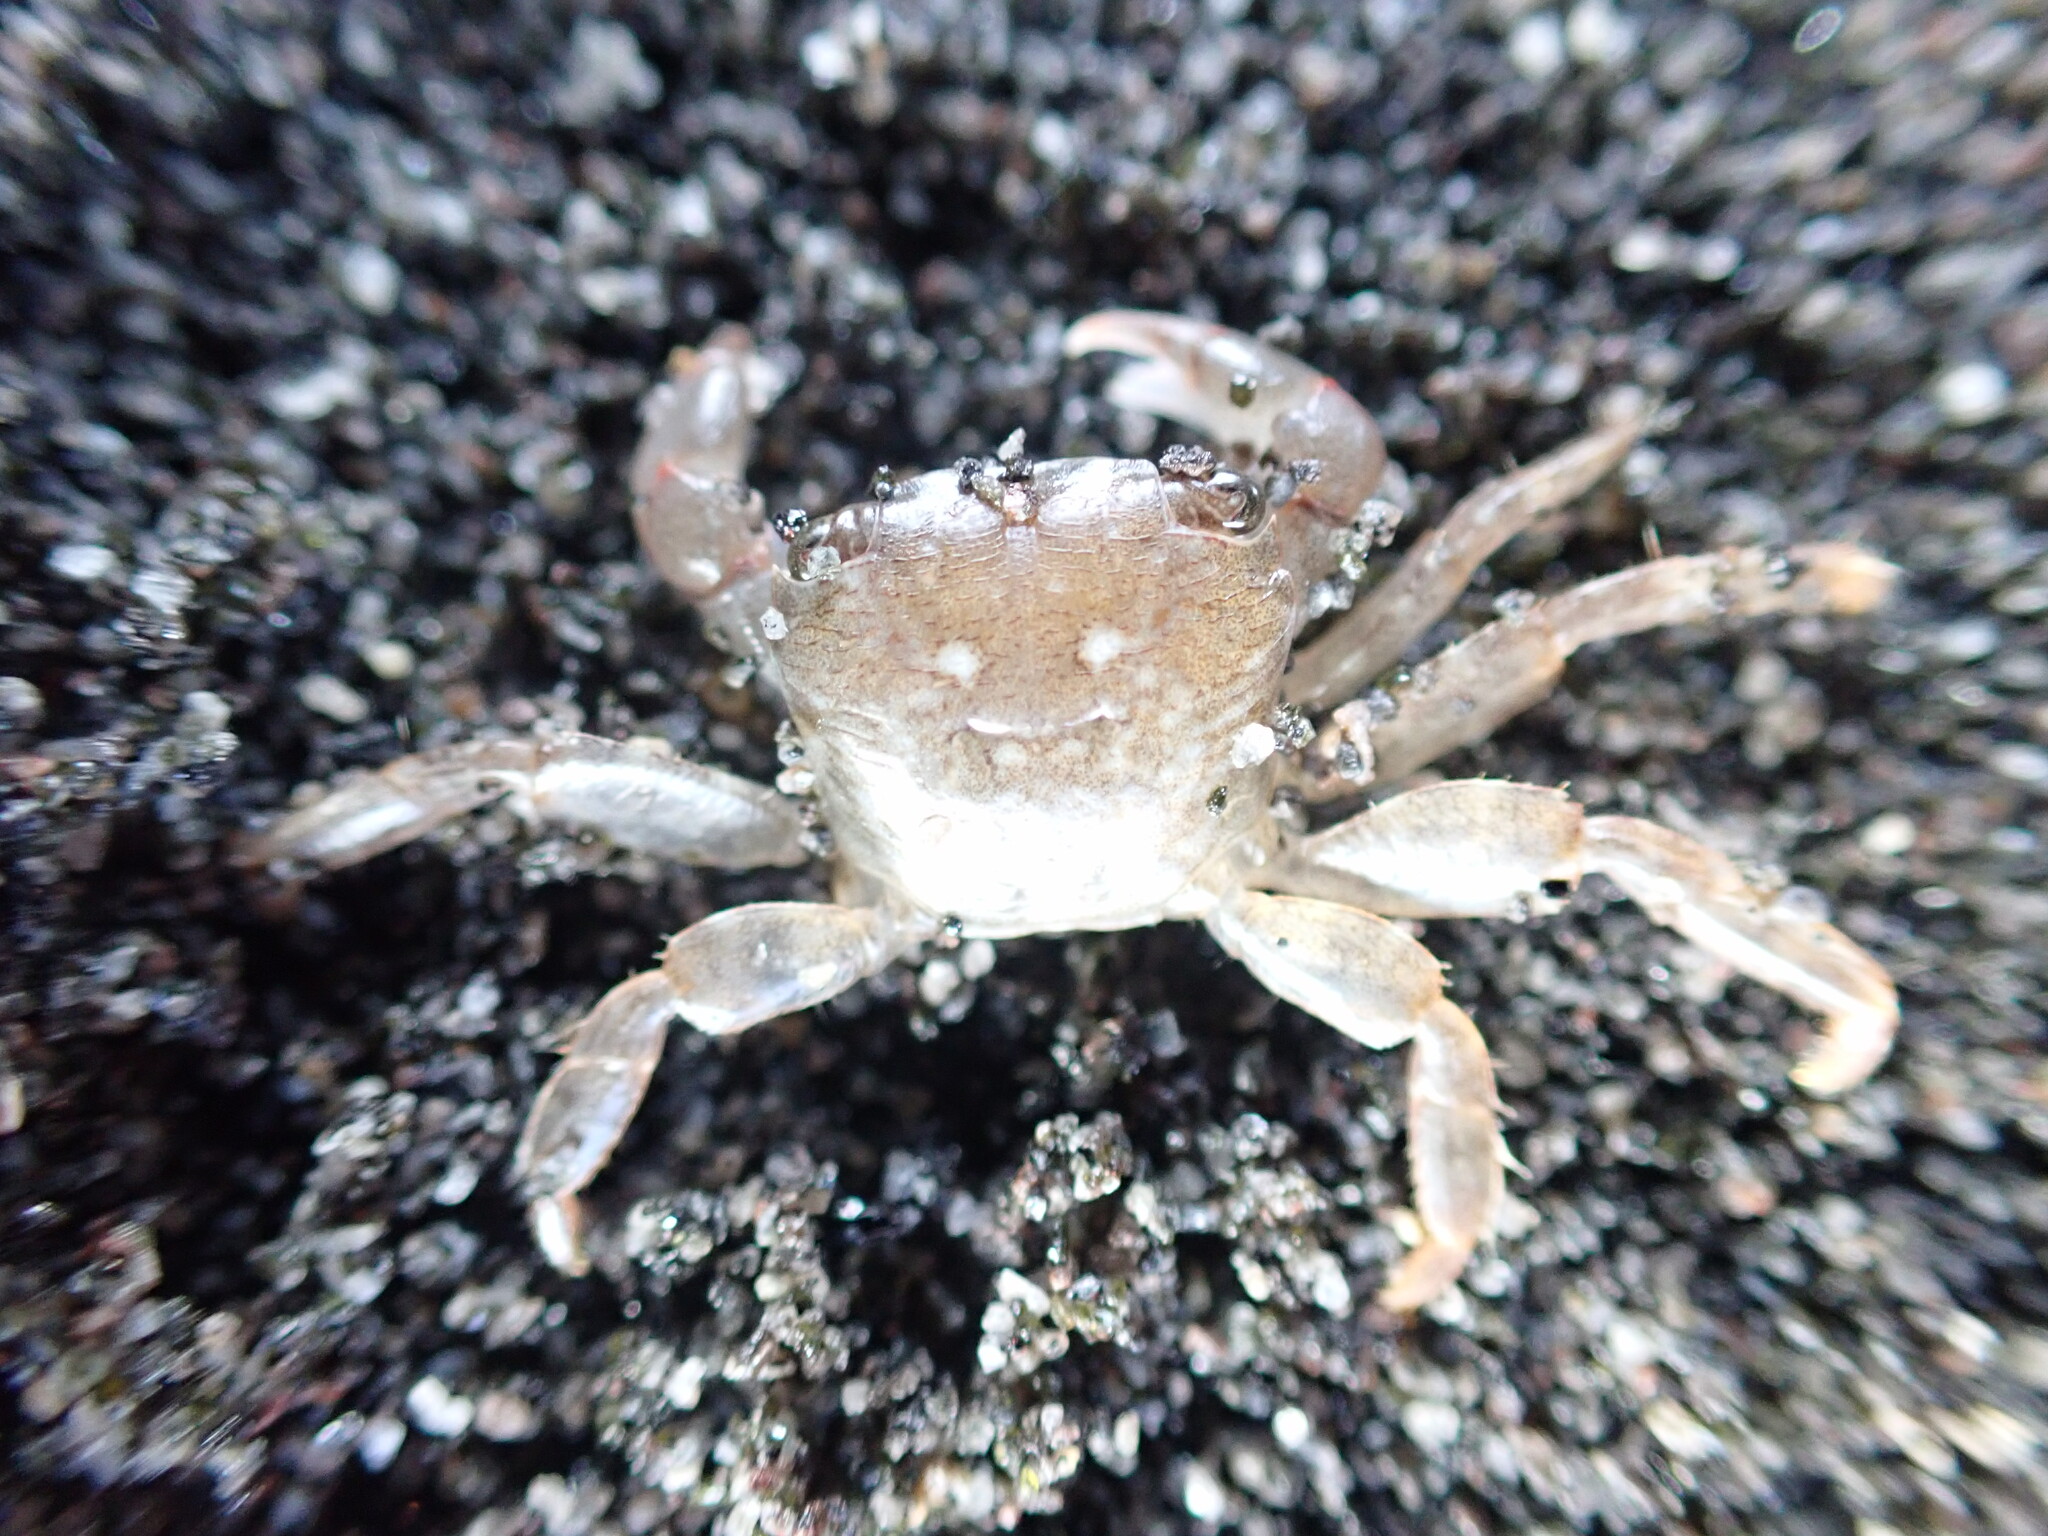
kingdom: Animalia
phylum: Arthropoda
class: Malacostraca
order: Decapoda
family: Grapsidae
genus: Planes
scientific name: Planes minutus
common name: Gulf weed crab
